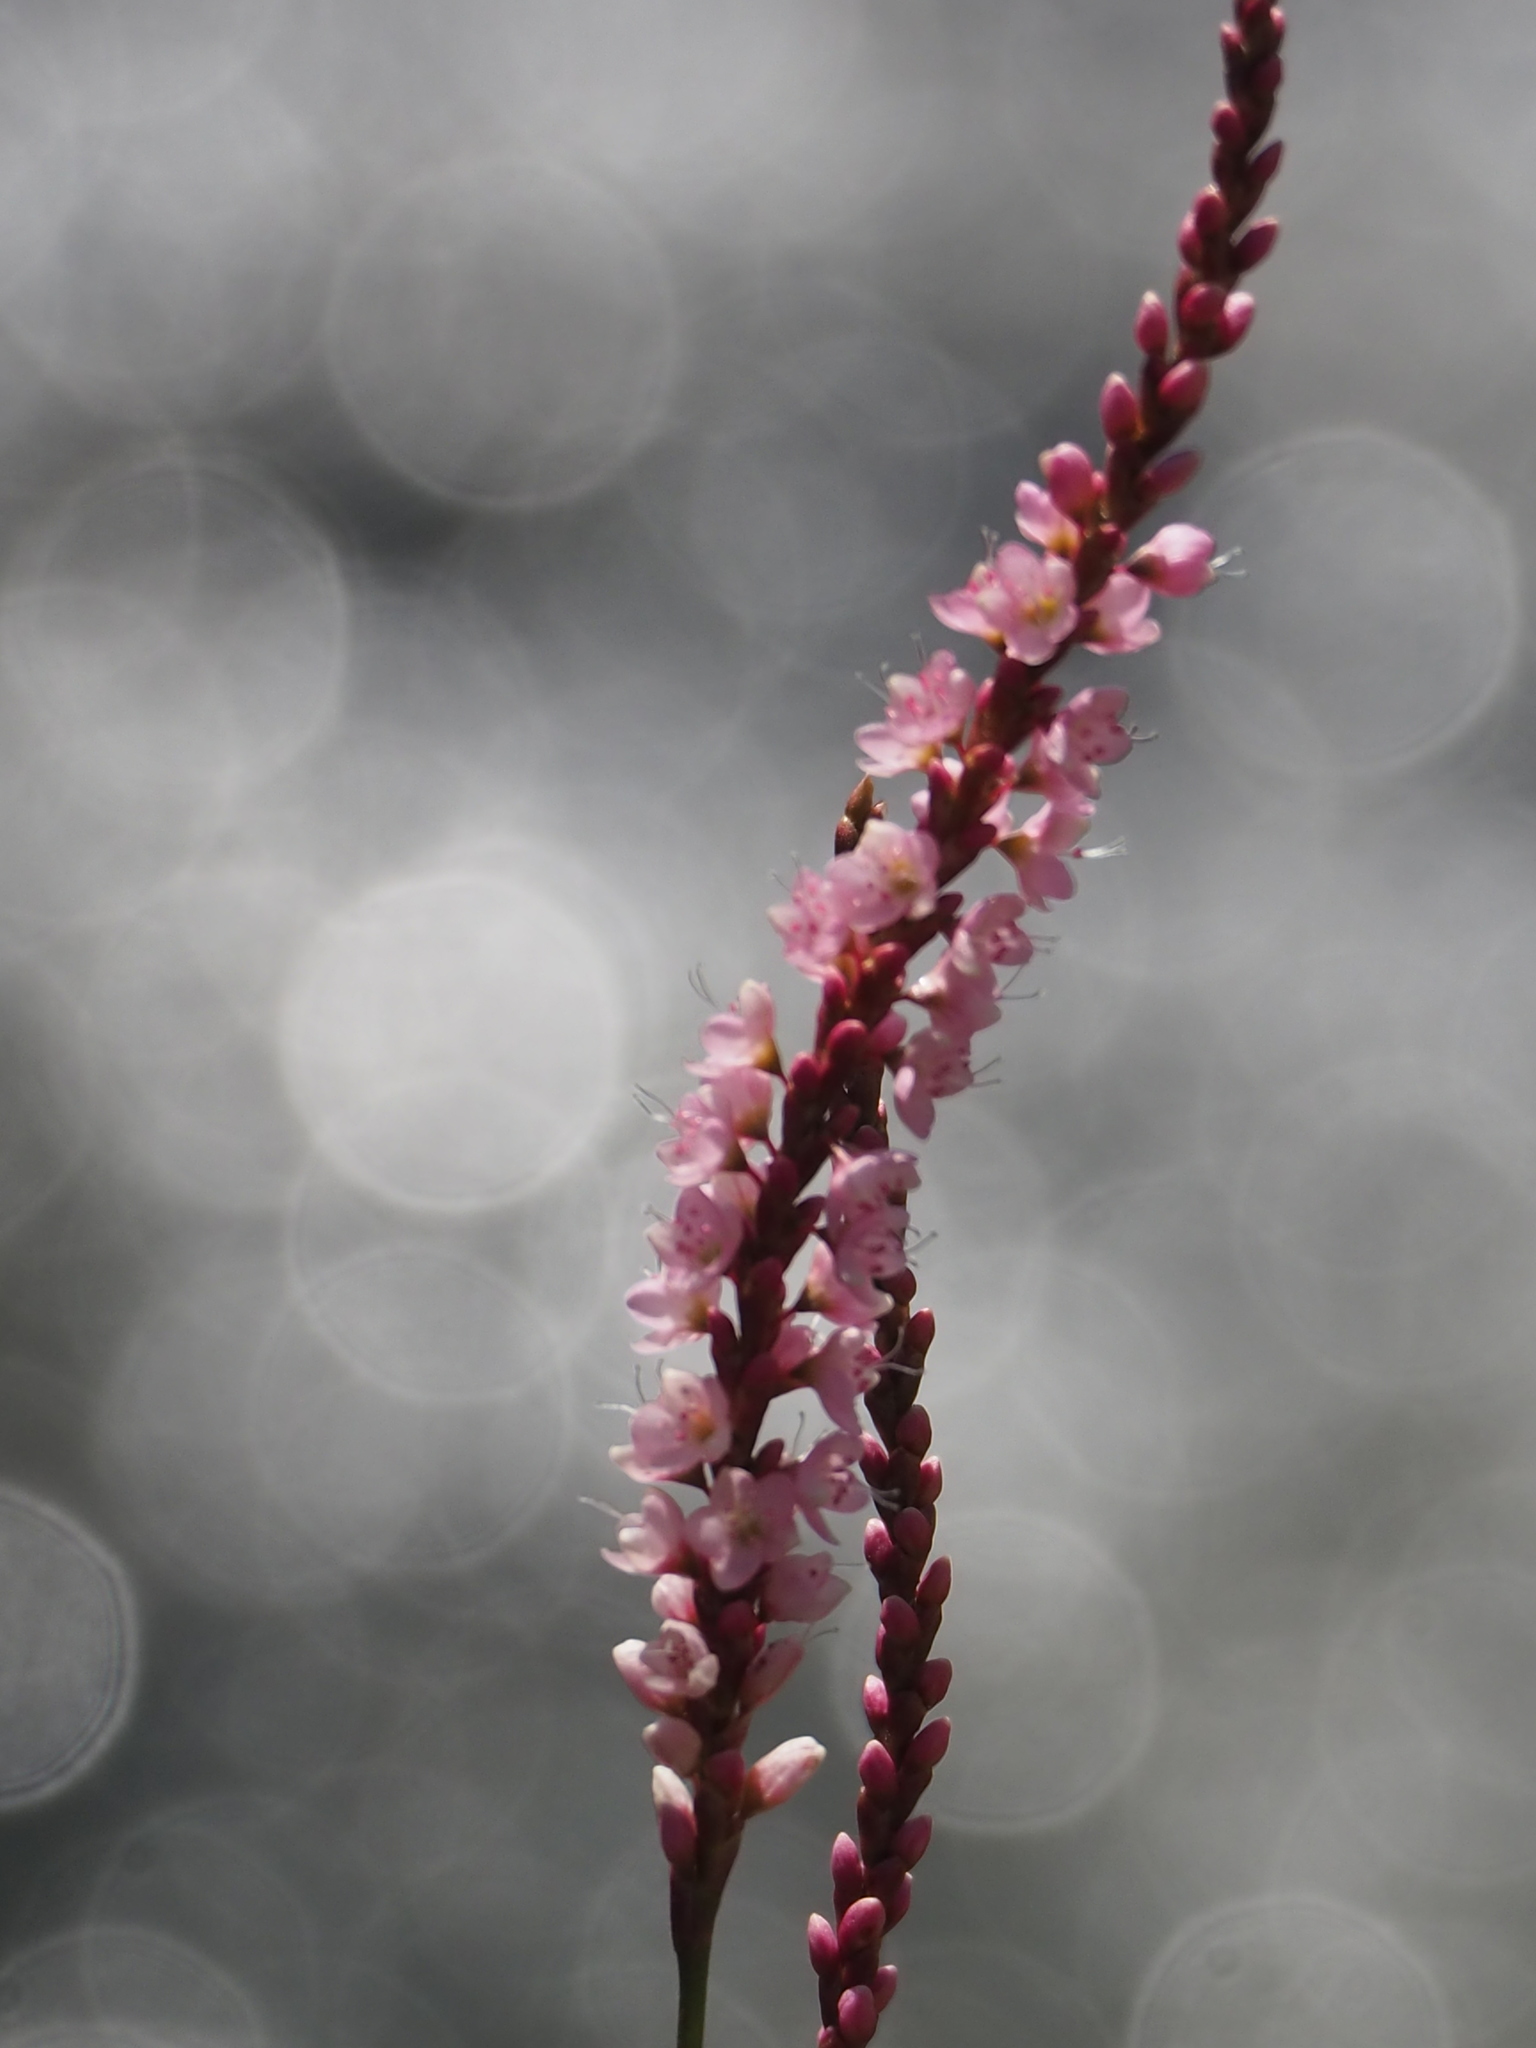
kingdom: Plantae
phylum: Tracheophyta
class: Magnoliopsida
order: Caryophyllales
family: Polygonaceae
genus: Persicaria
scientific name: Persicaria glabra
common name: Denseflower knotweed
